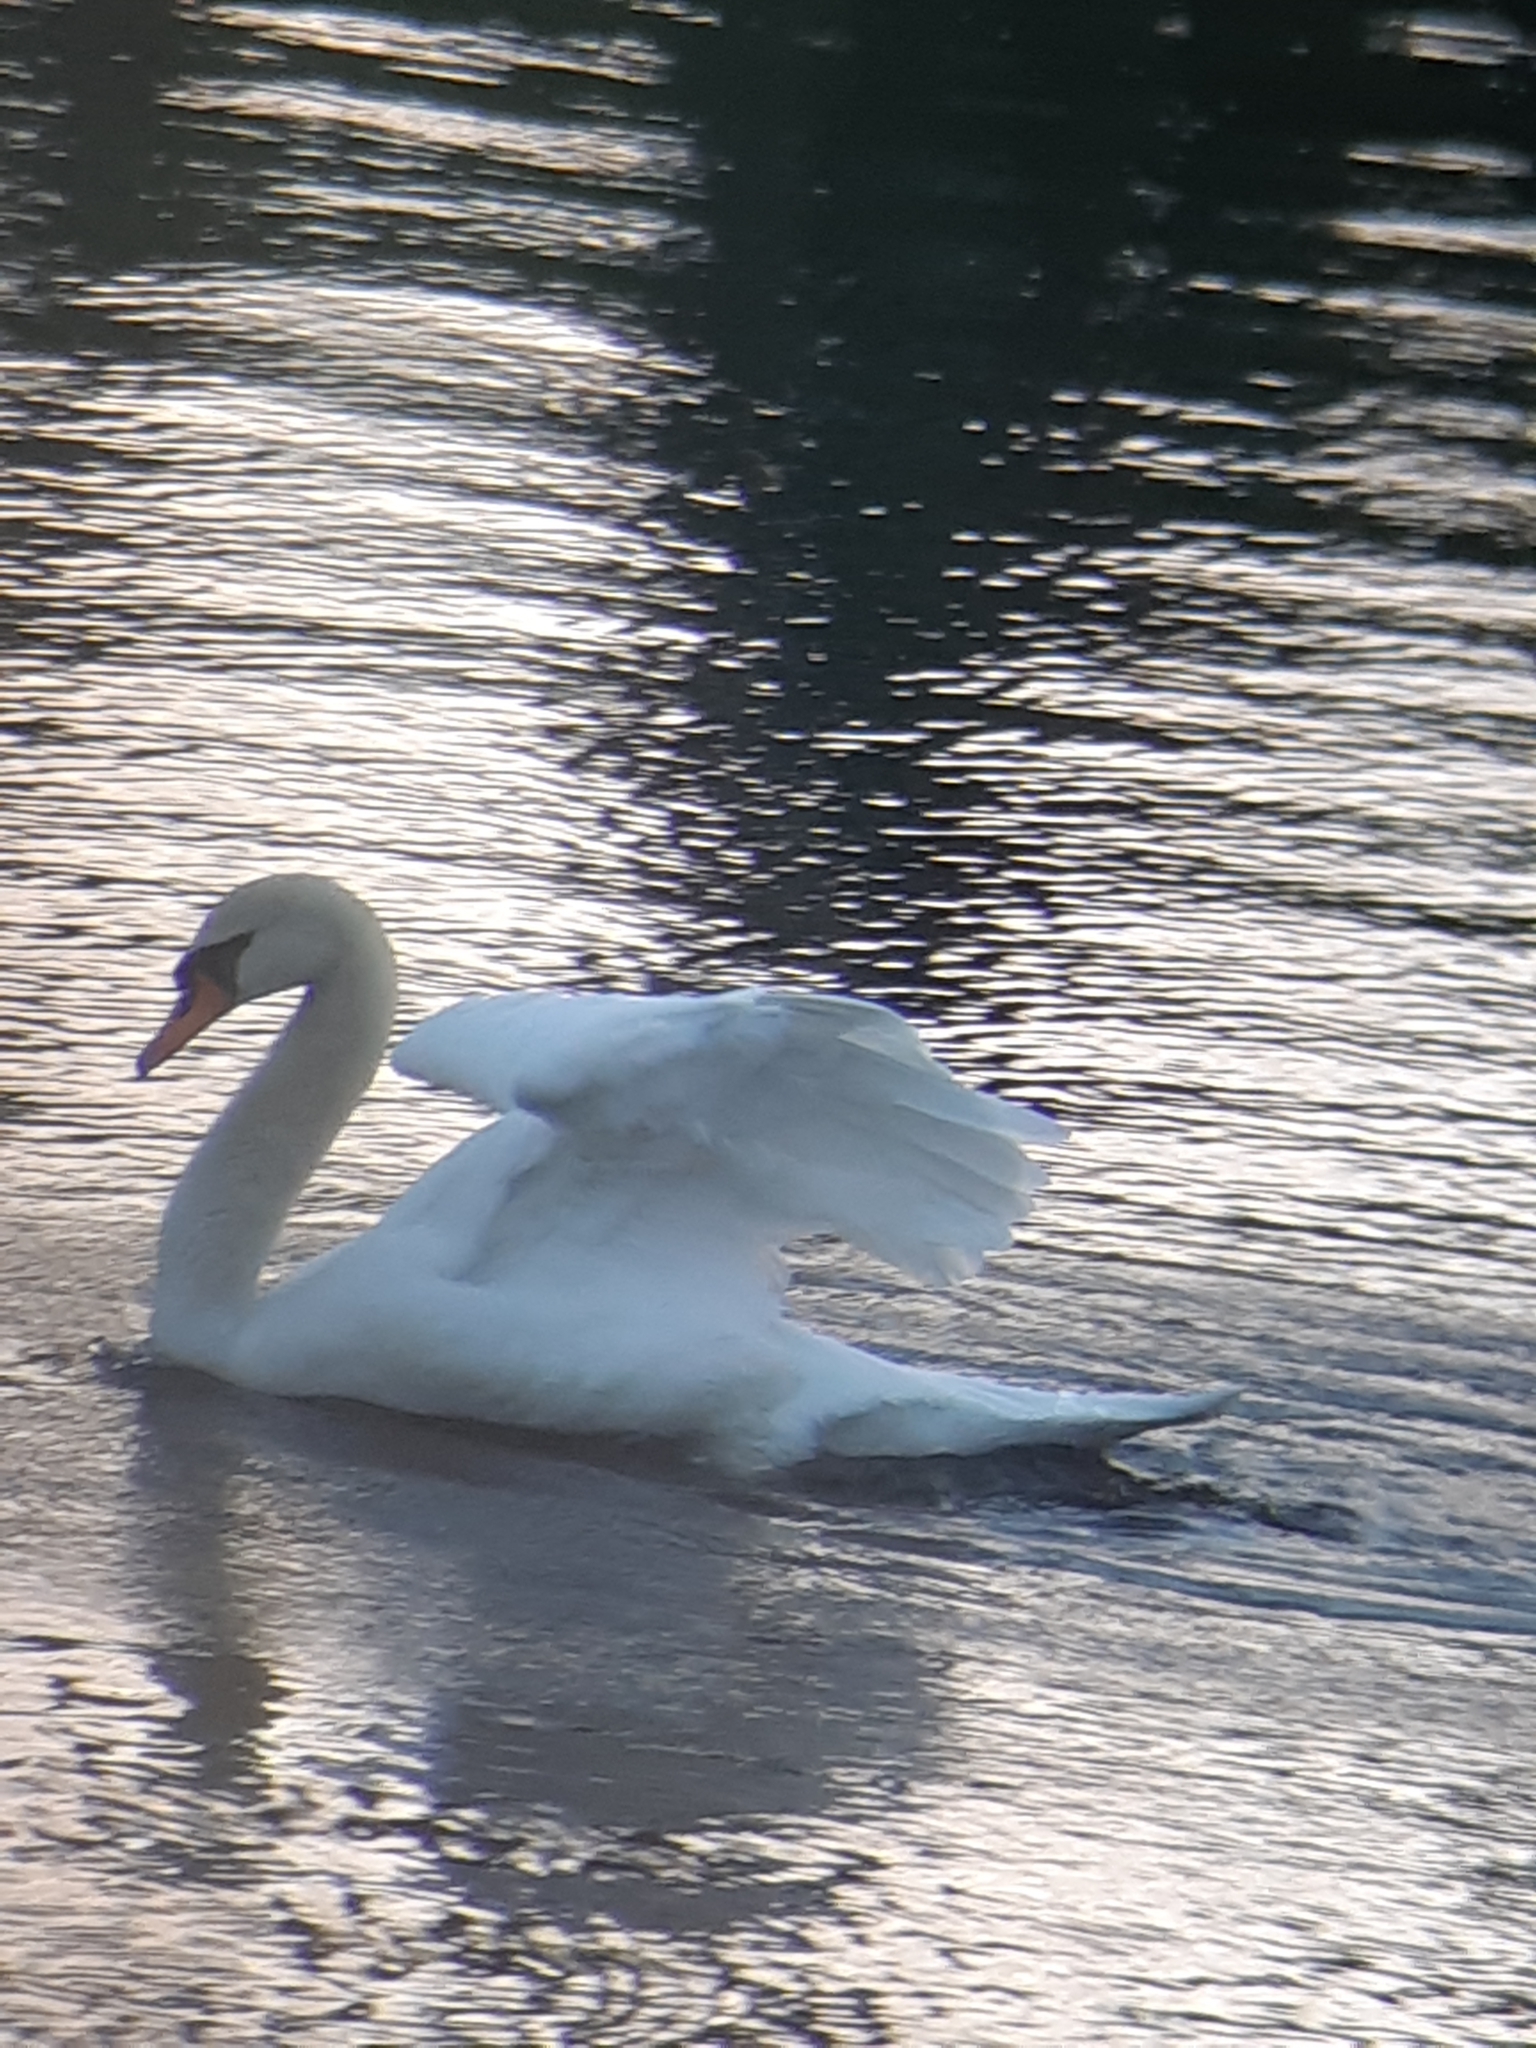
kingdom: Animalia
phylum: Chordata
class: Aves
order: Anseriformes
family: Anatidae
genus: Cygnus
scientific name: Cygnus olor
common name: Mute swan
